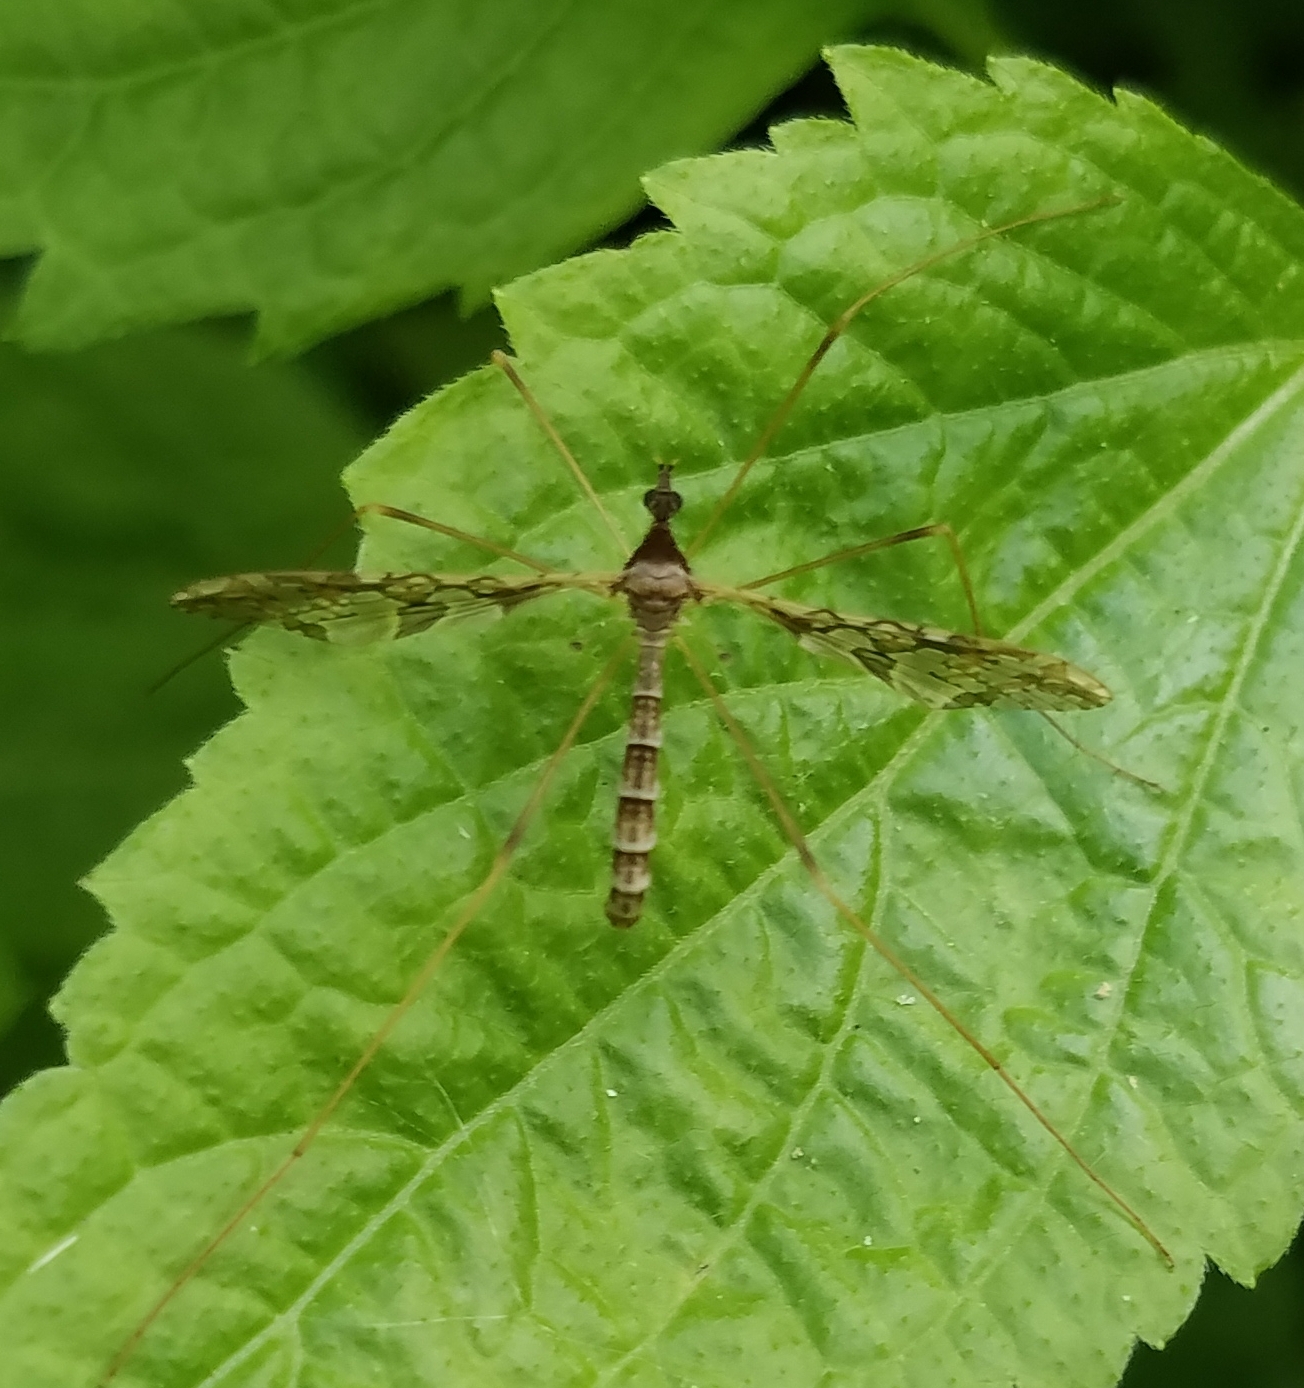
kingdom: Animalia
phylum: Arthropoda
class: Insecta
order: Diptera
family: Limoniidae
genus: Epiphragma
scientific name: Epiphragma solatrix
